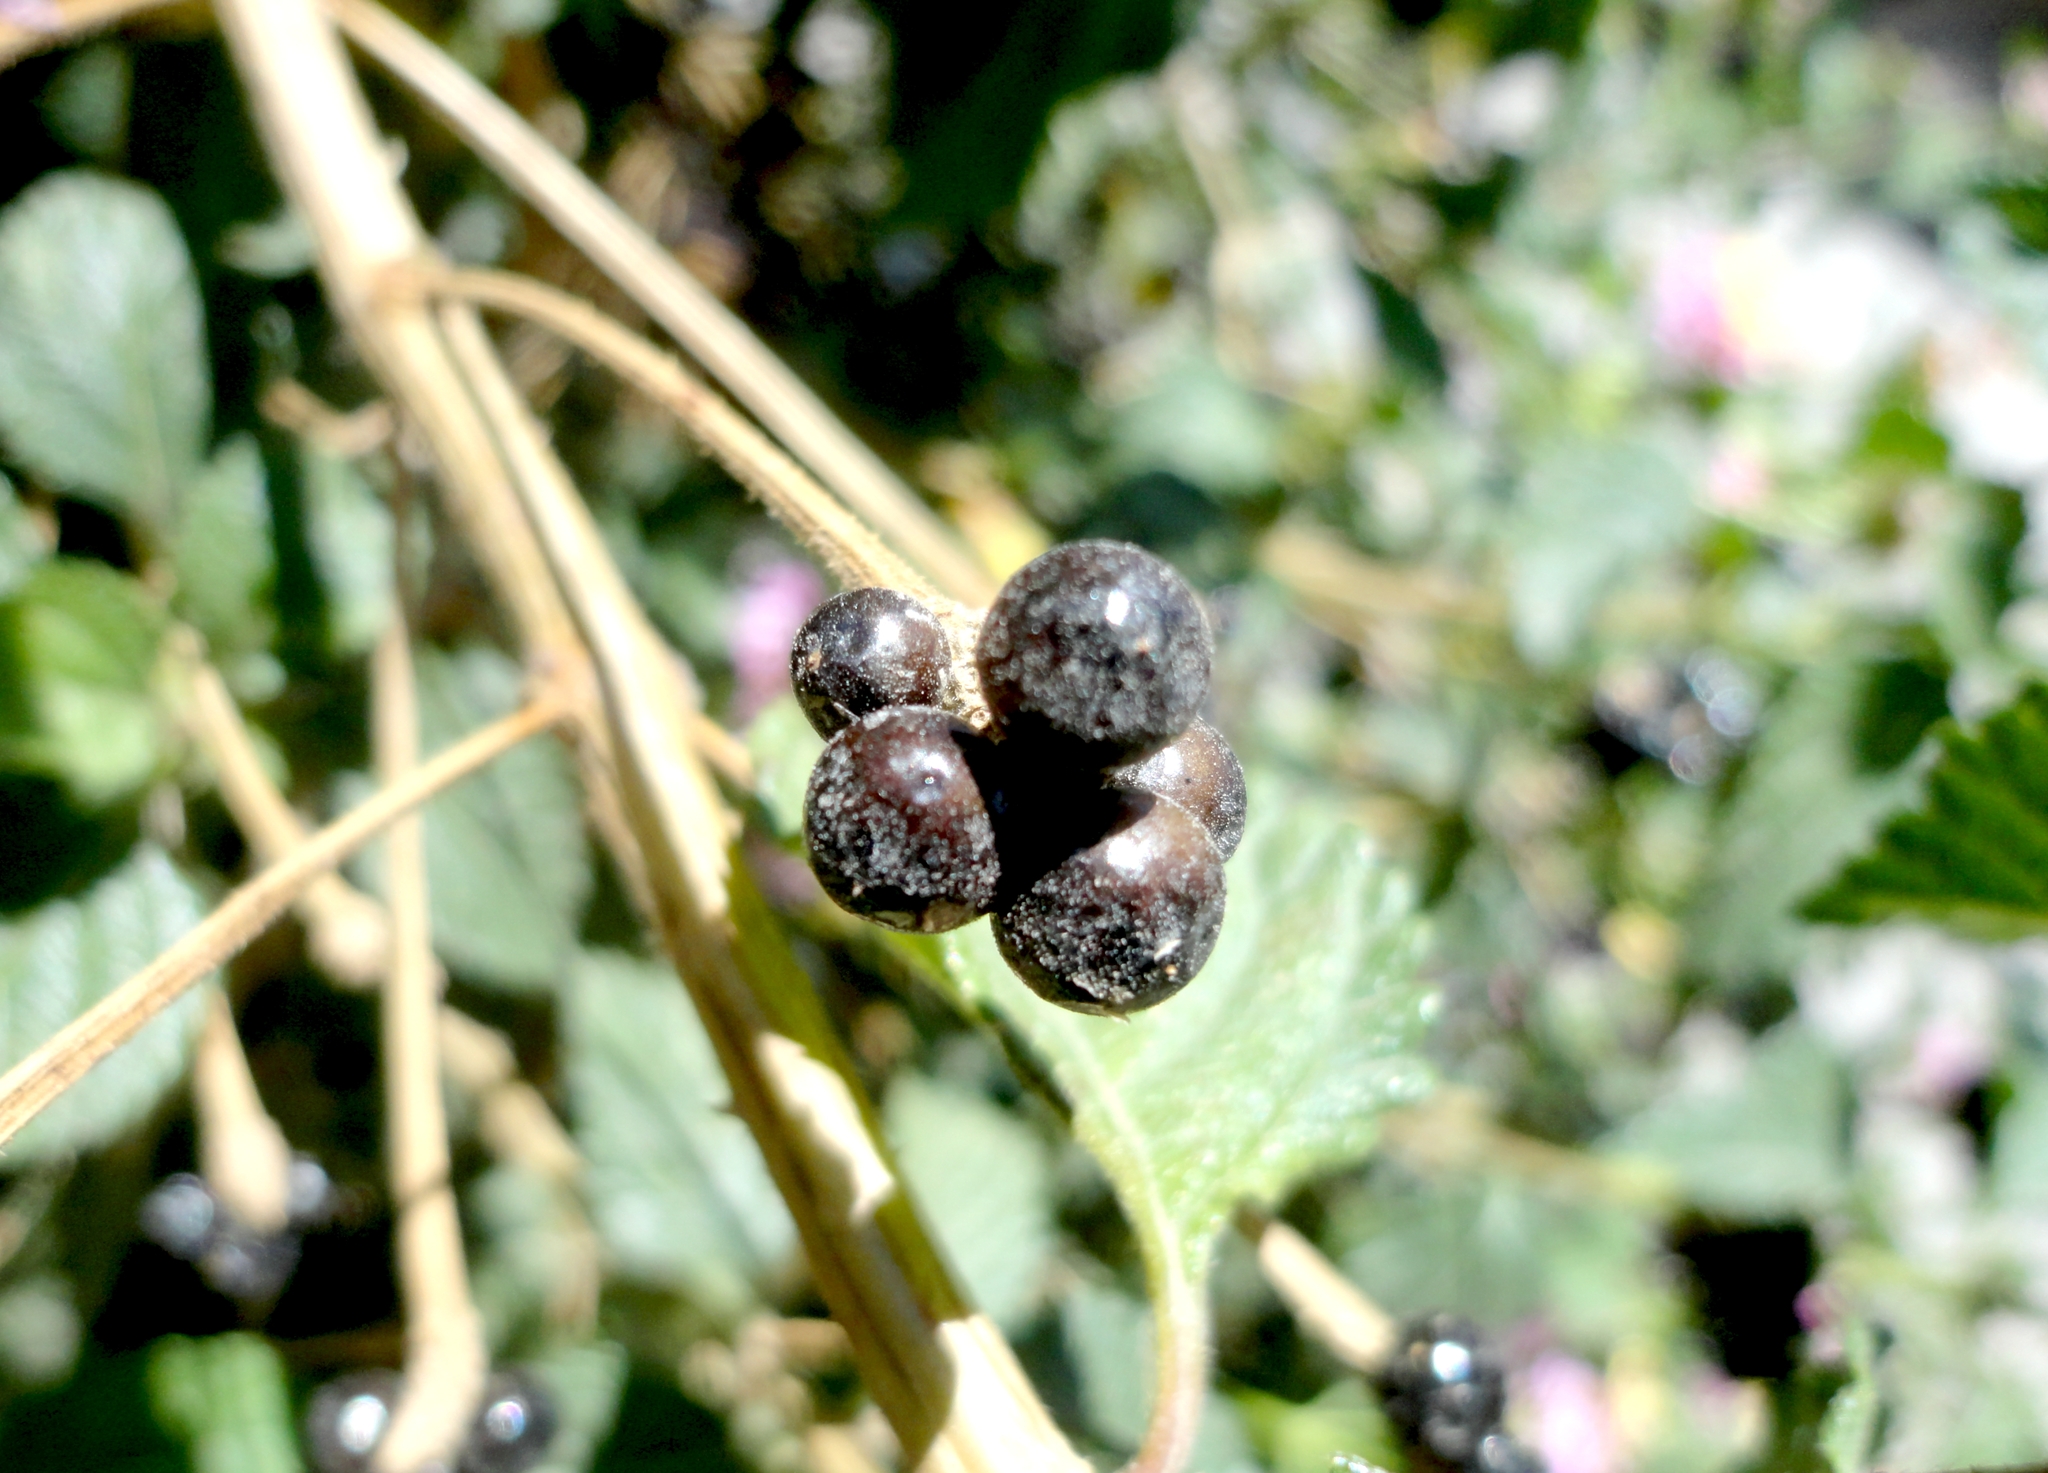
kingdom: Plantae
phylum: Tracheophyta
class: Magnoliopsida
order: Lamiales
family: Verbenaceae
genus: Lantana
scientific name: Lantana camara
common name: Lantana
